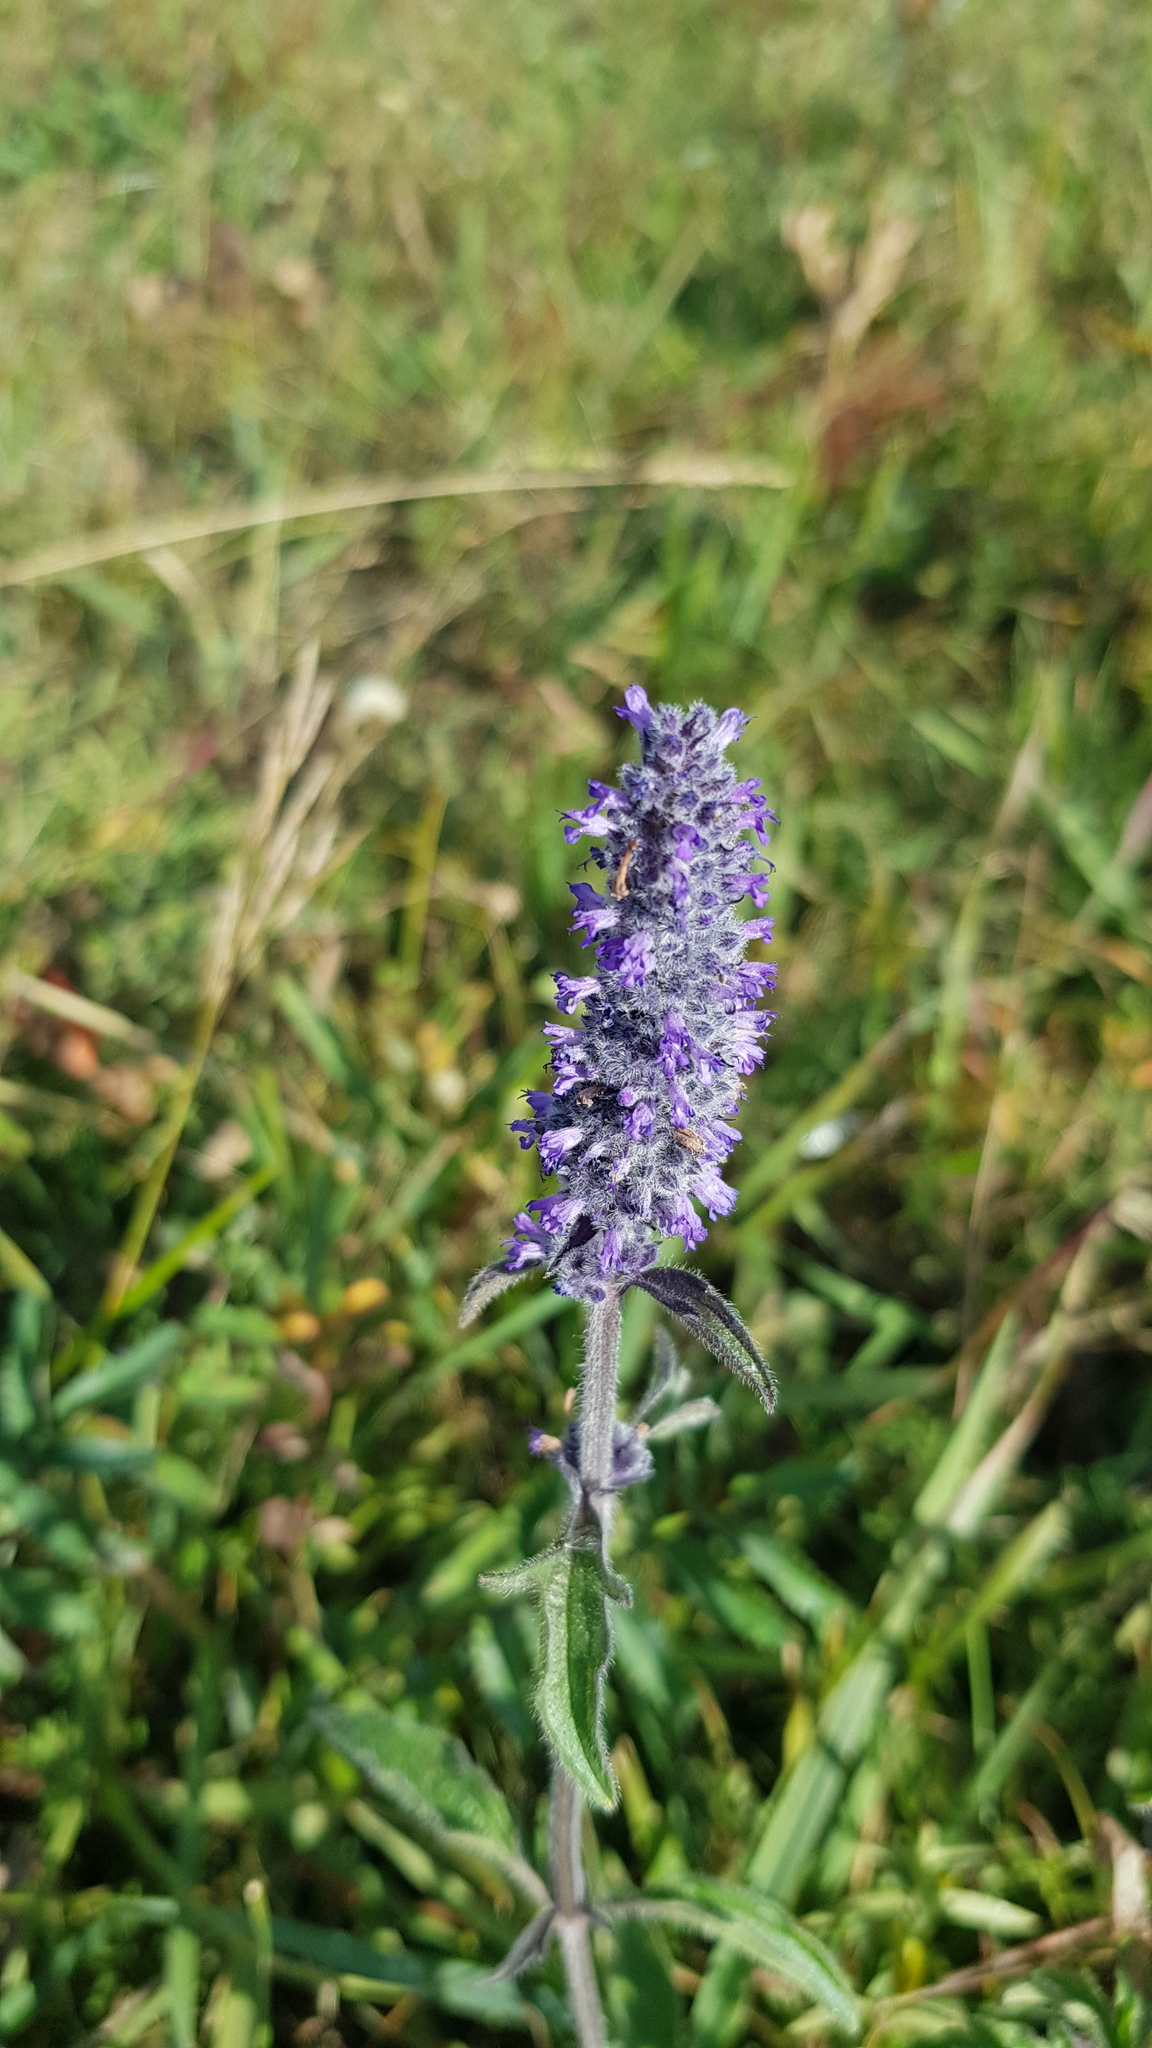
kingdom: Plantae
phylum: Tracheophyta
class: Magnoliopsida
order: Lamiales
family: Lamiaceae
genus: Nepeta
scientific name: Nepeta multifida
